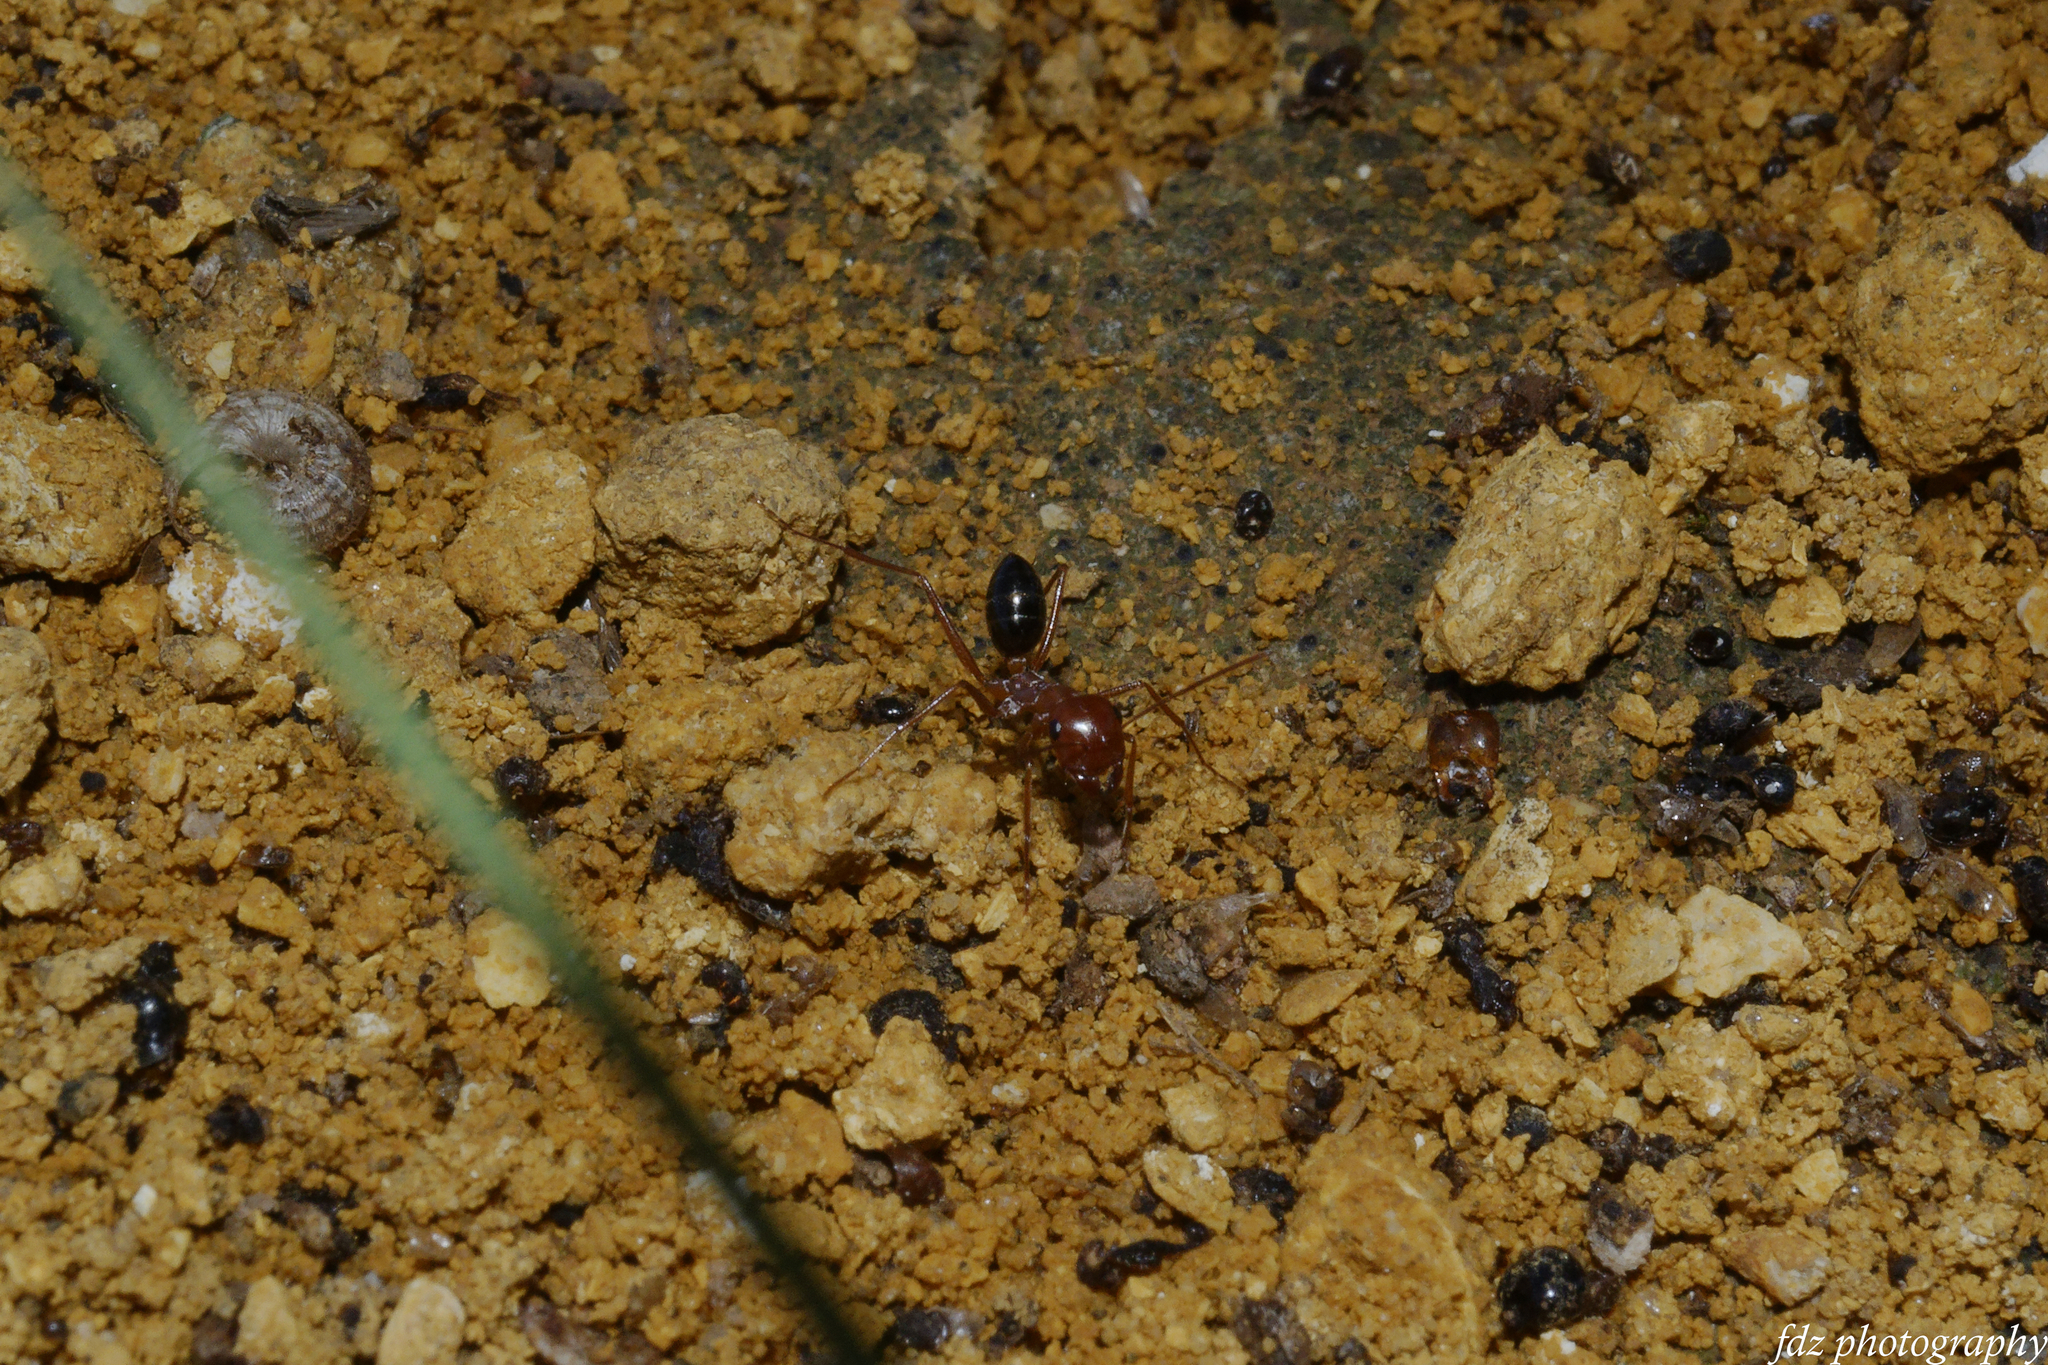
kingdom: Animalia
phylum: Arthropoda
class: Insecta
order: Hymenoptera
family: Formicidae
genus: Cataglyphis
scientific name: Cataglyphis rosenhaueri
